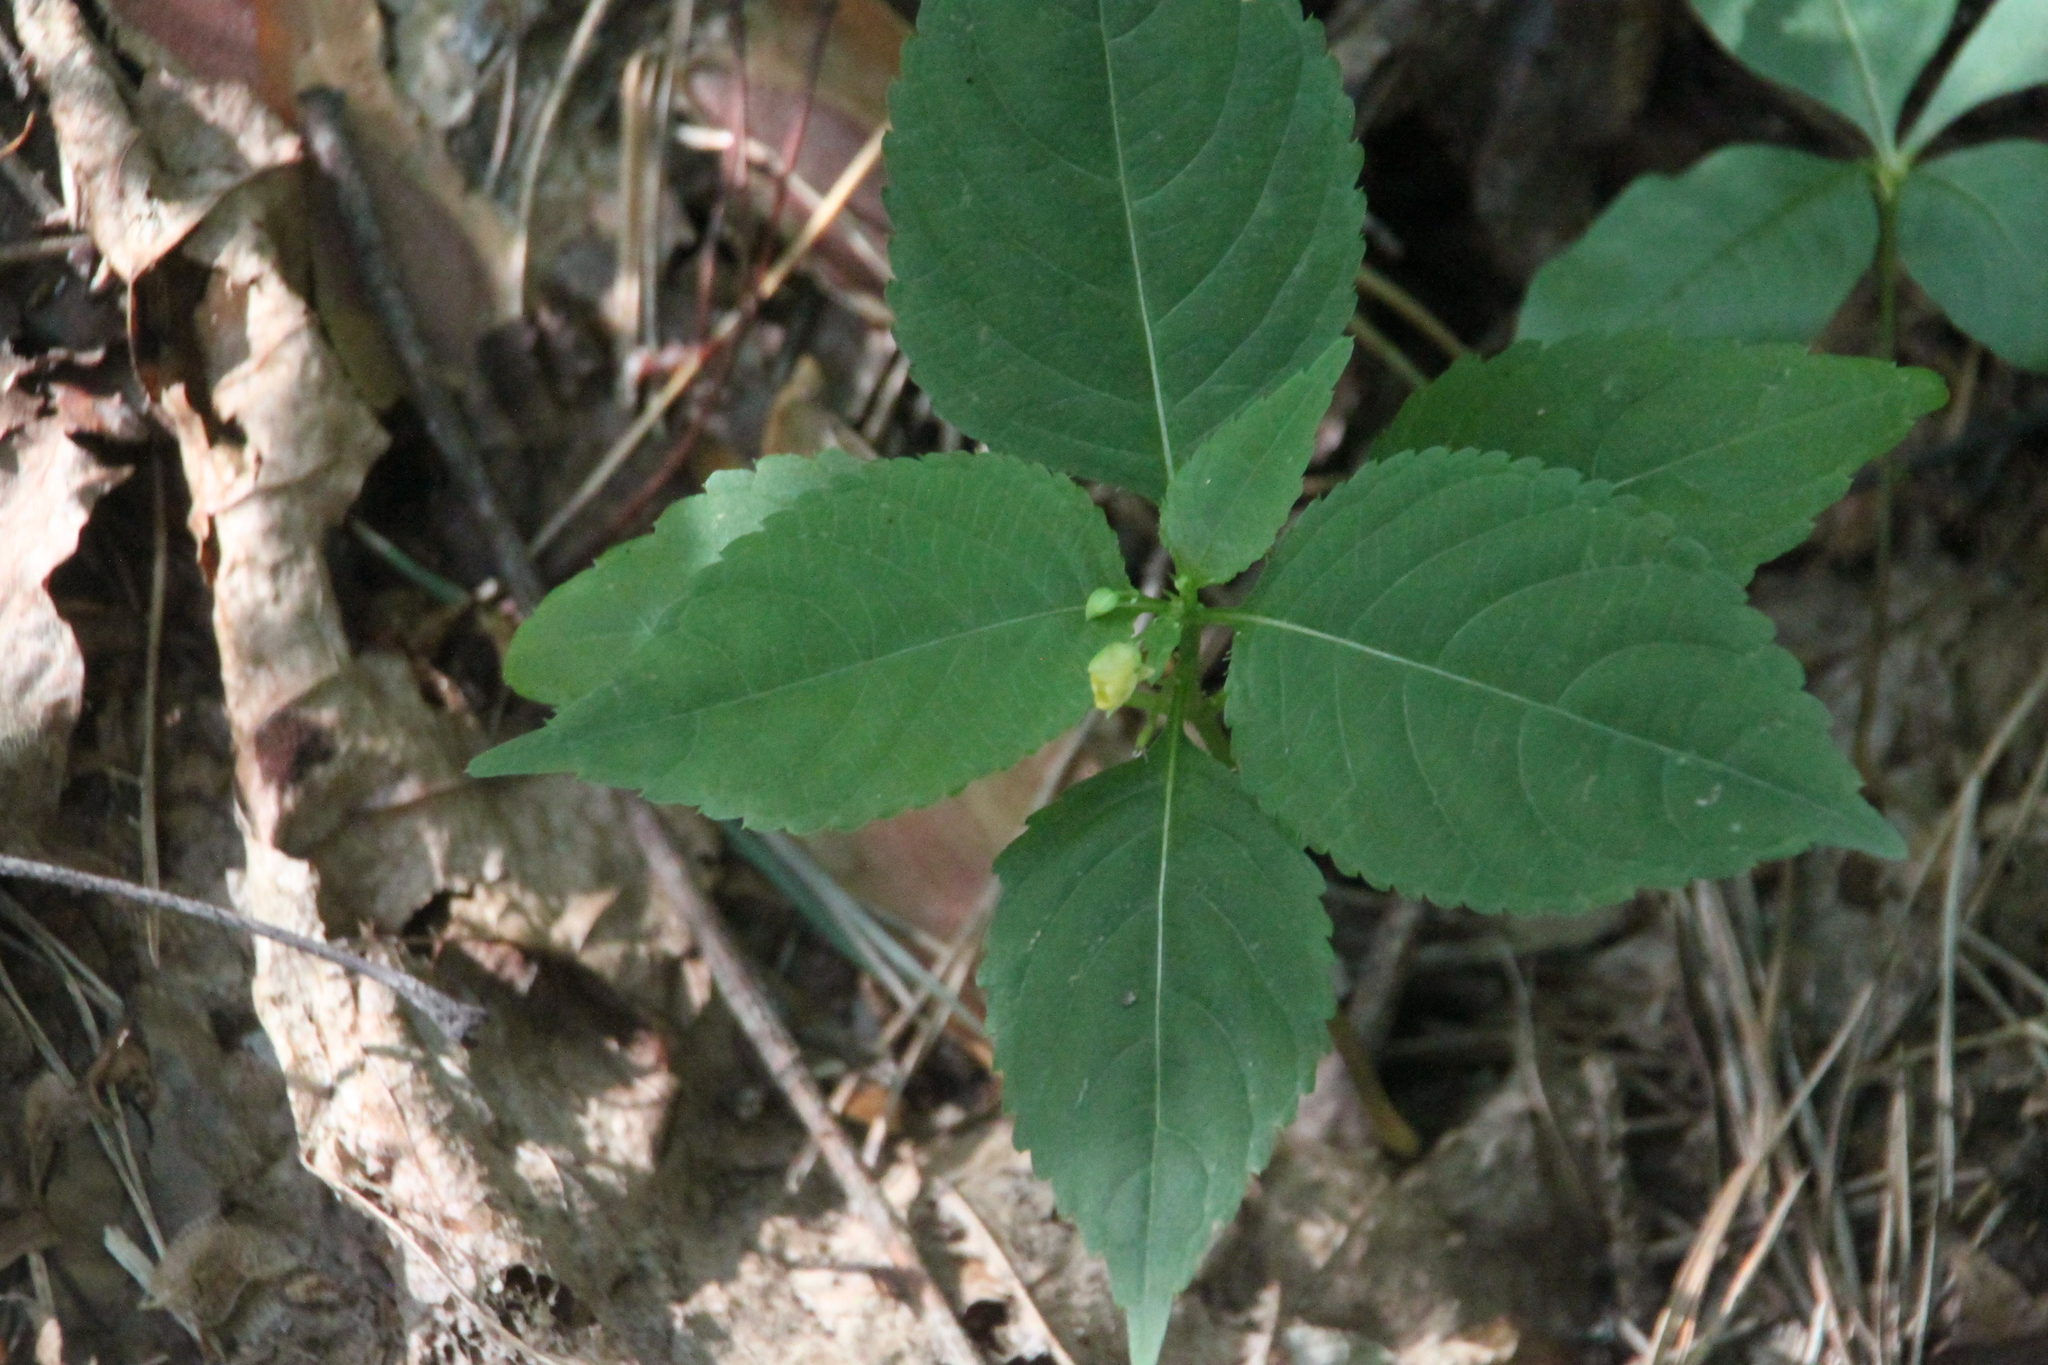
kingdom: Plantae
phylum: Tracheophyta
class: Magnoliopsida
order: Ericales
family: Balsaminaceae
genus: Impatiens
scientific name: Impatiens parviflora
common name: Small balsam
